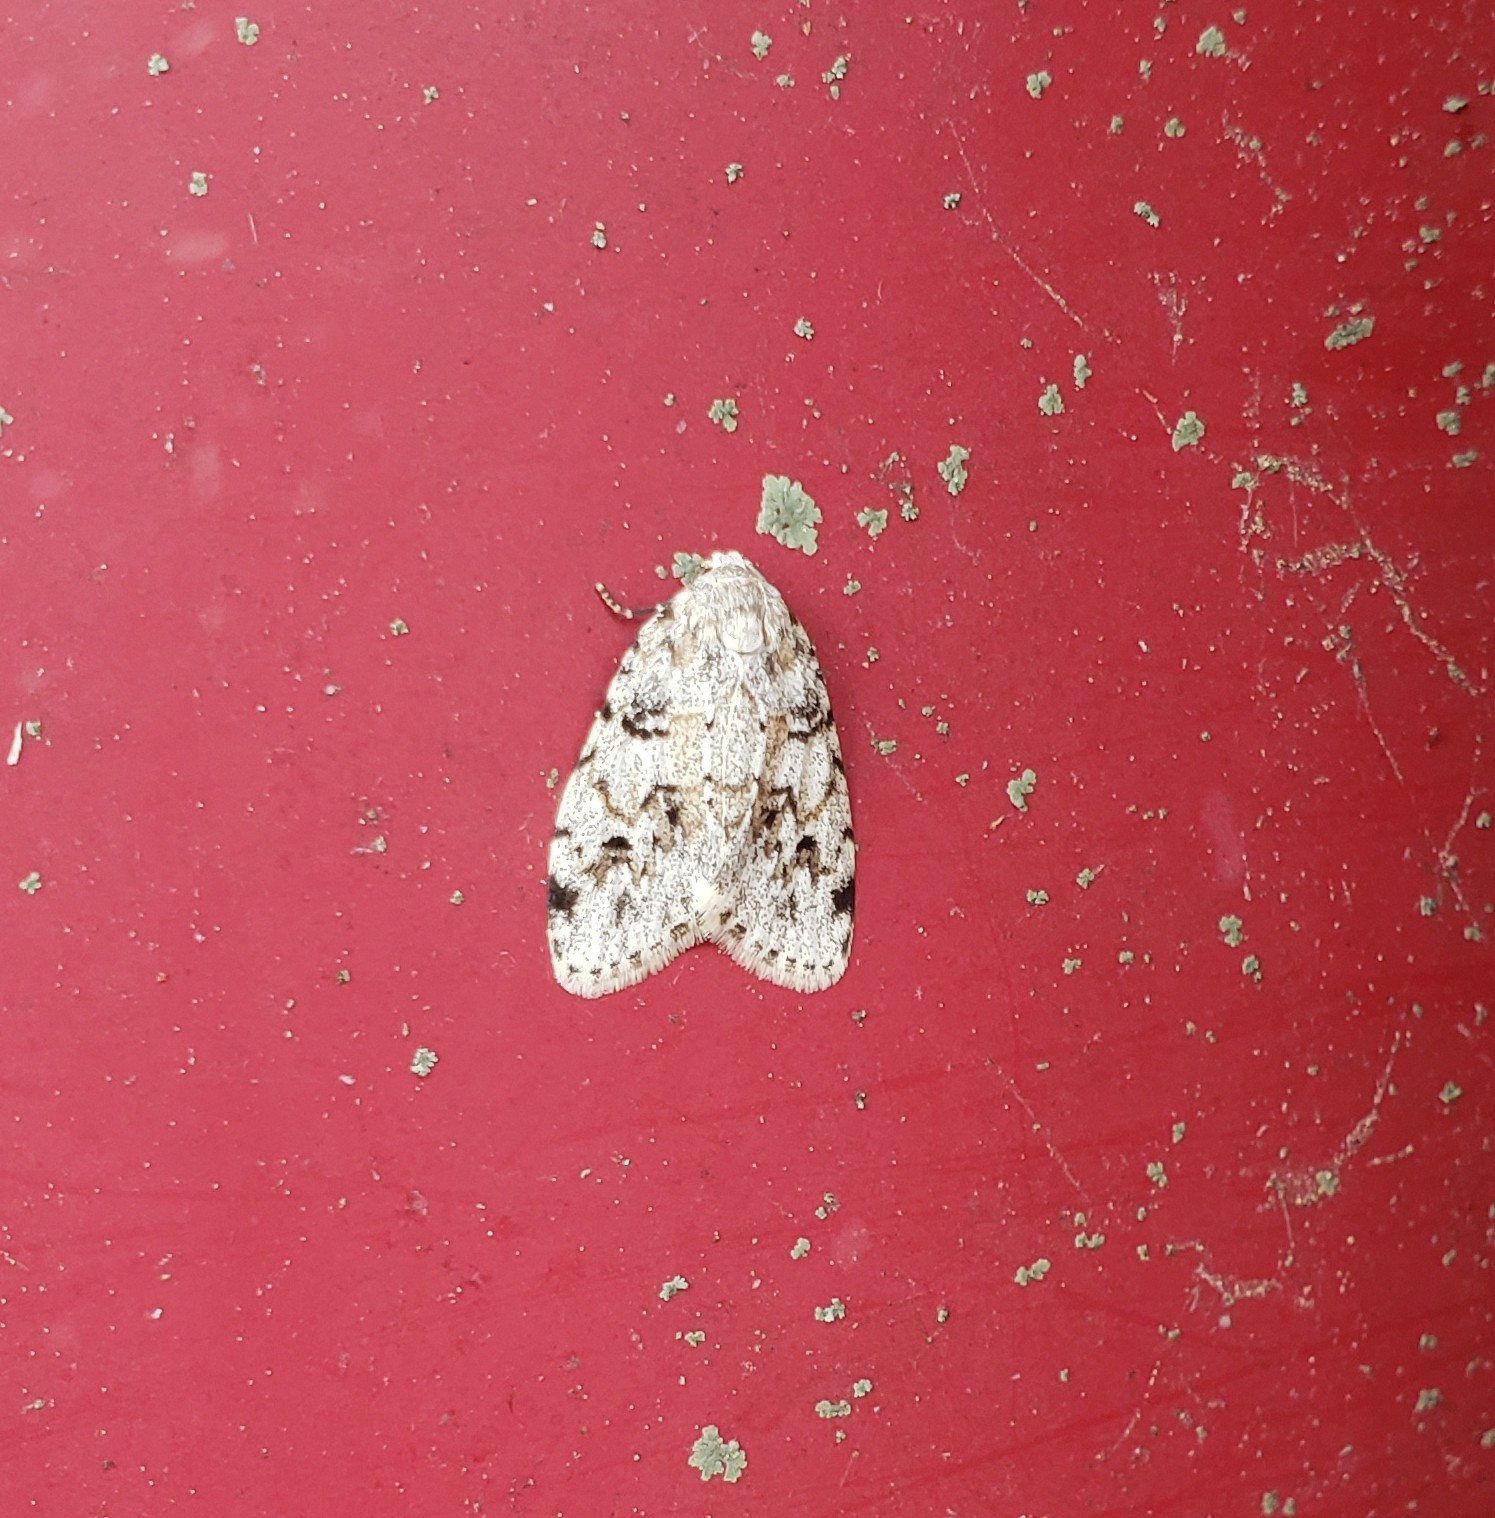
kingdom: Animalia
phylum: Arthropoda
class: Insecta
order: Lepidoptera
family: Erebidae
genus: Clemensia
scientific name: Clemensia albata
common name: Little white lichen moth
